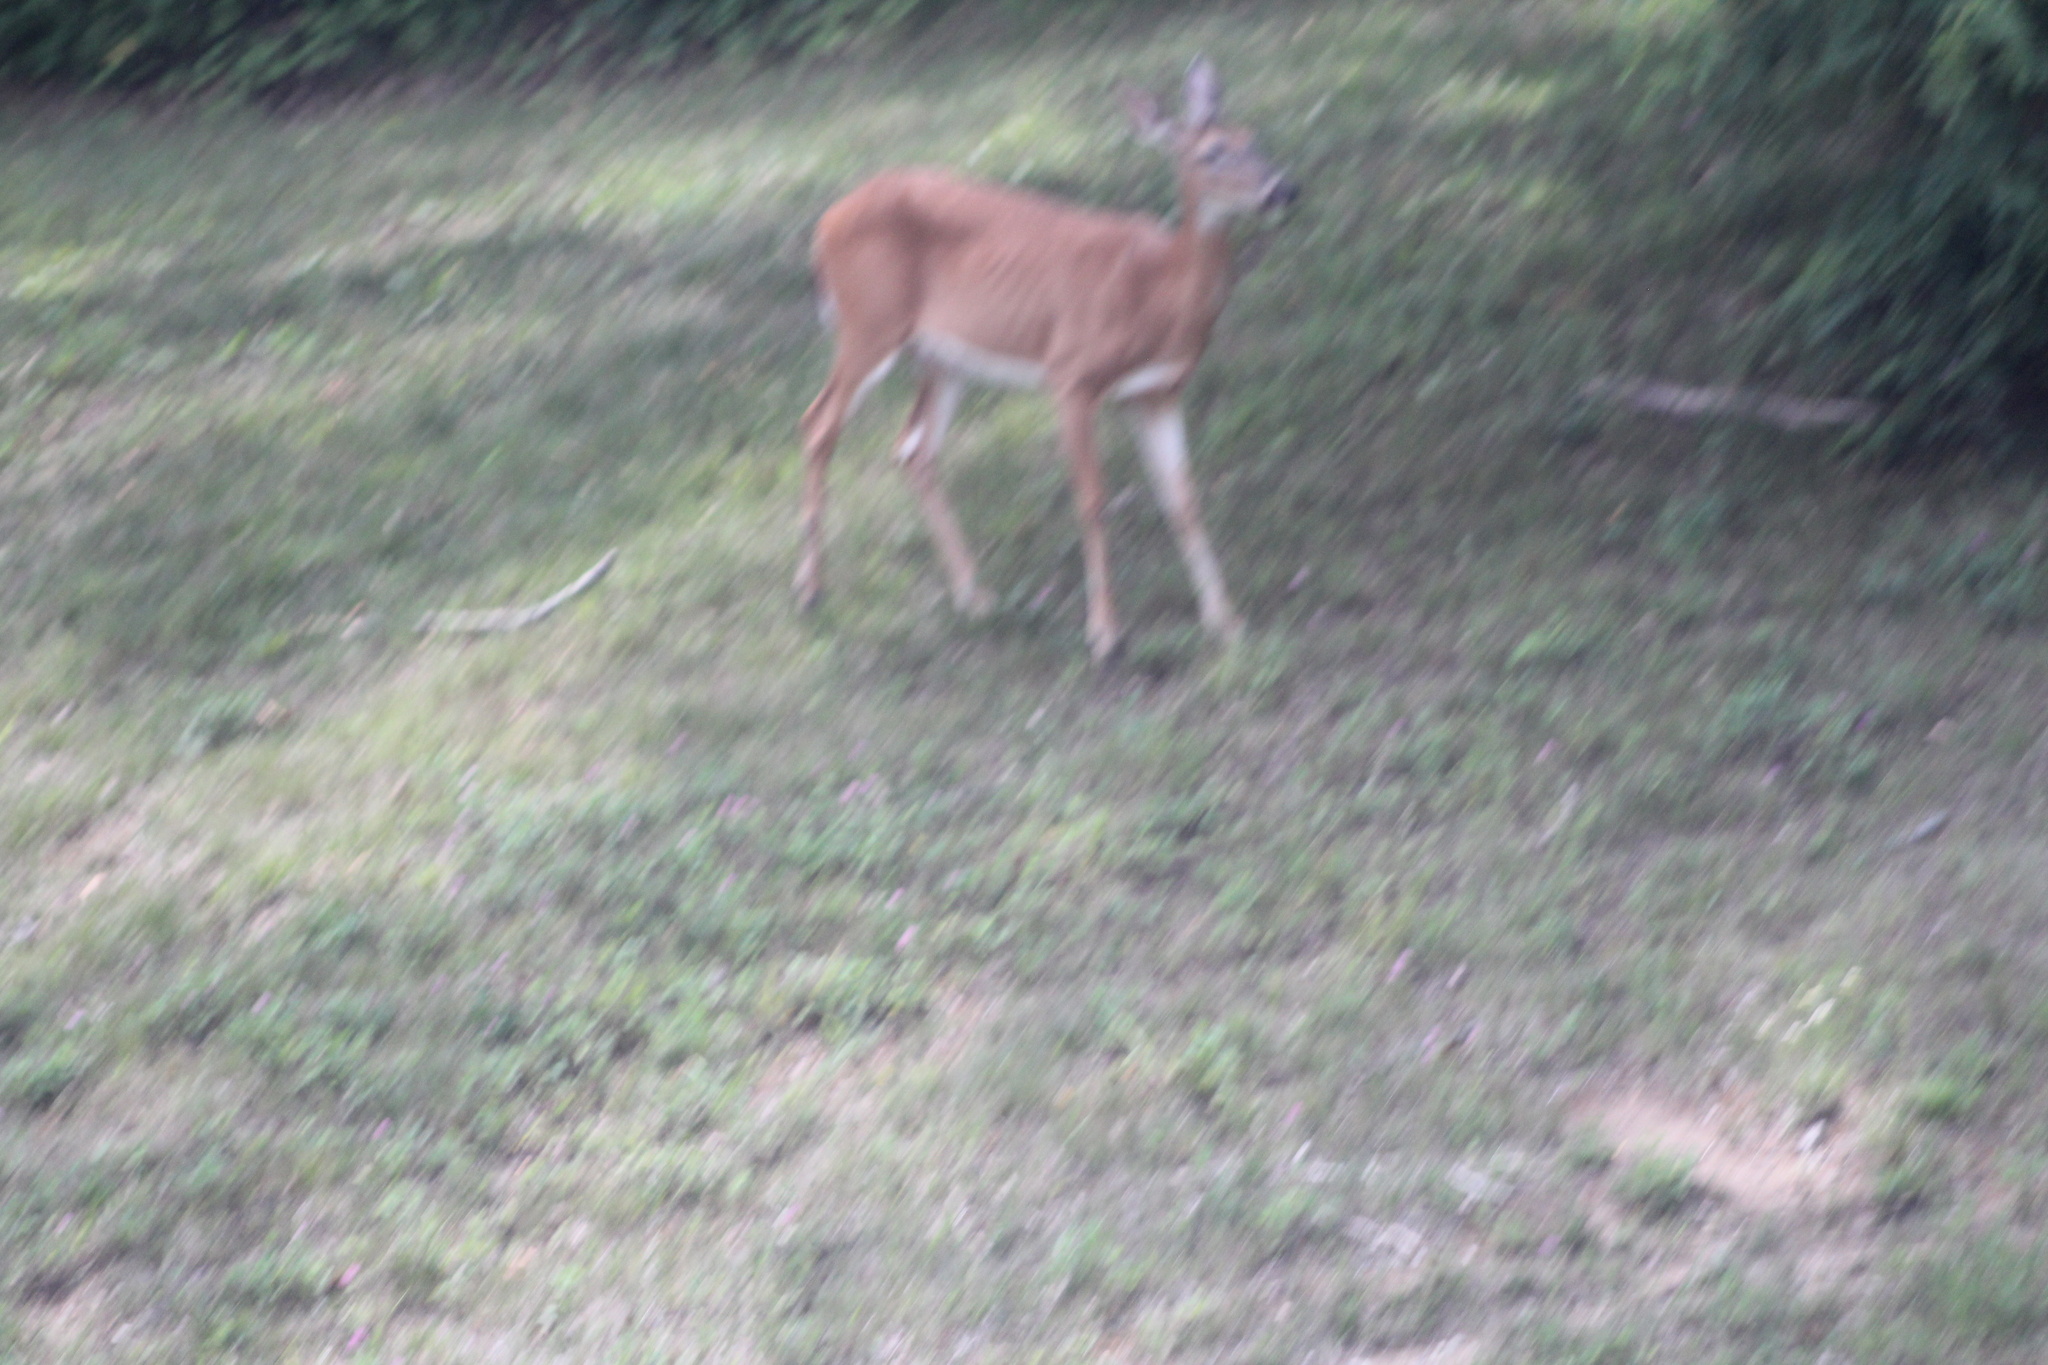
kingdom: Animalia
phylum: Chordata
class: Mammalia
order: Artiodactyla
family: Cervidae
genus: Odocoileus
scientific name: Odocoileus virginianus
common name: White-tailed deer
